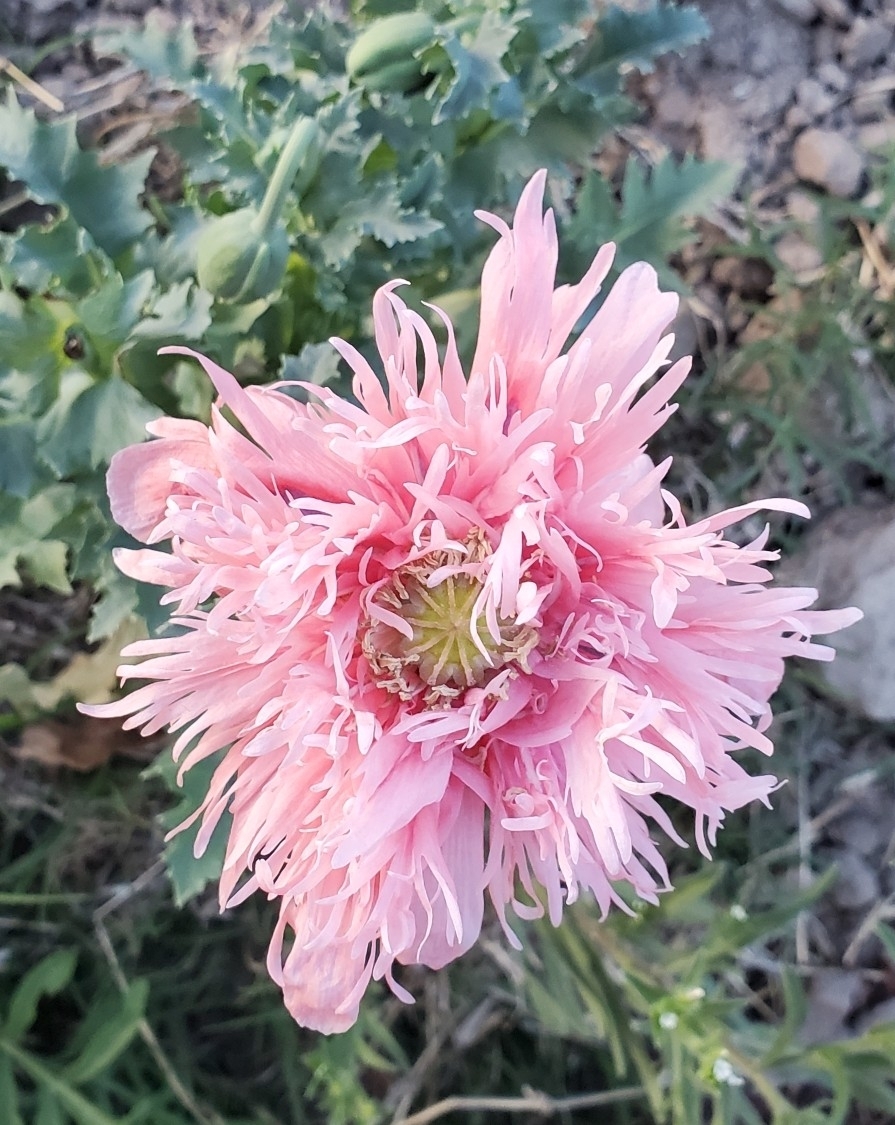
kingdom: Plantae
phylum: Tracheophyta
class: Magnoliopsida
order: Ranunculales
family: Papaveraceae
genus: Papaver
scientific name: Papaver somniferum
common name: Opium poppy
